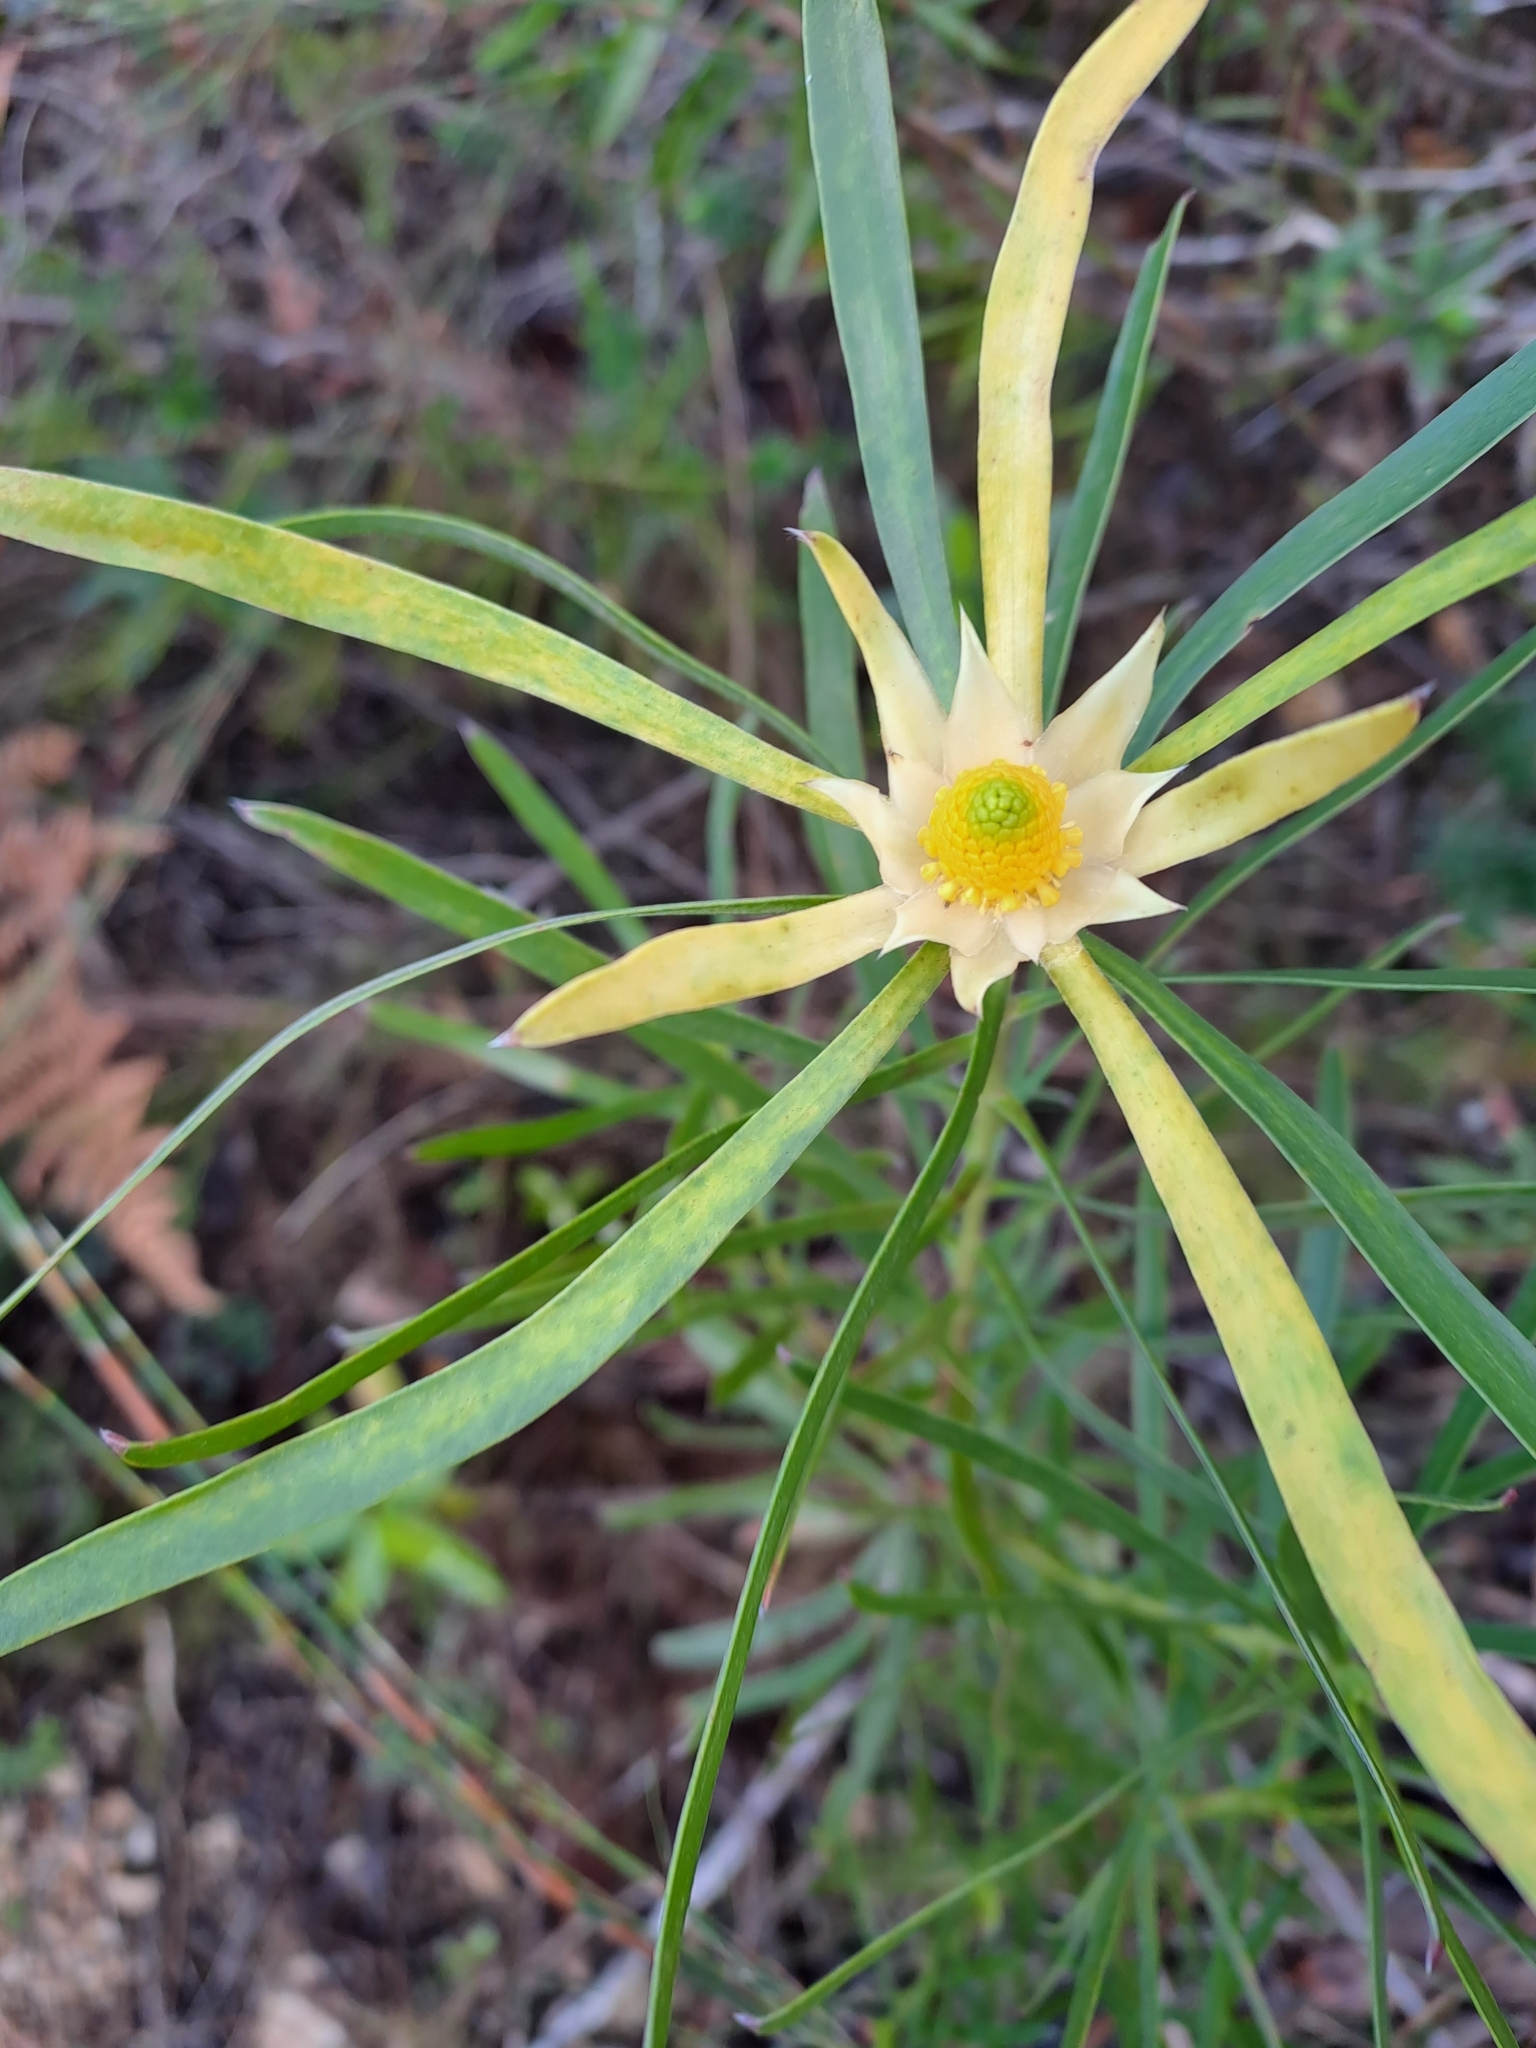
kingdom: Plantae
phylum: Tracheophyta
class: Magnoliopsida
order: Proteales
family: Proteaceae
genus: Leucadendron
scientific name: Leucadendron eucalyptifolium
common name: Gum-leaved conebush
